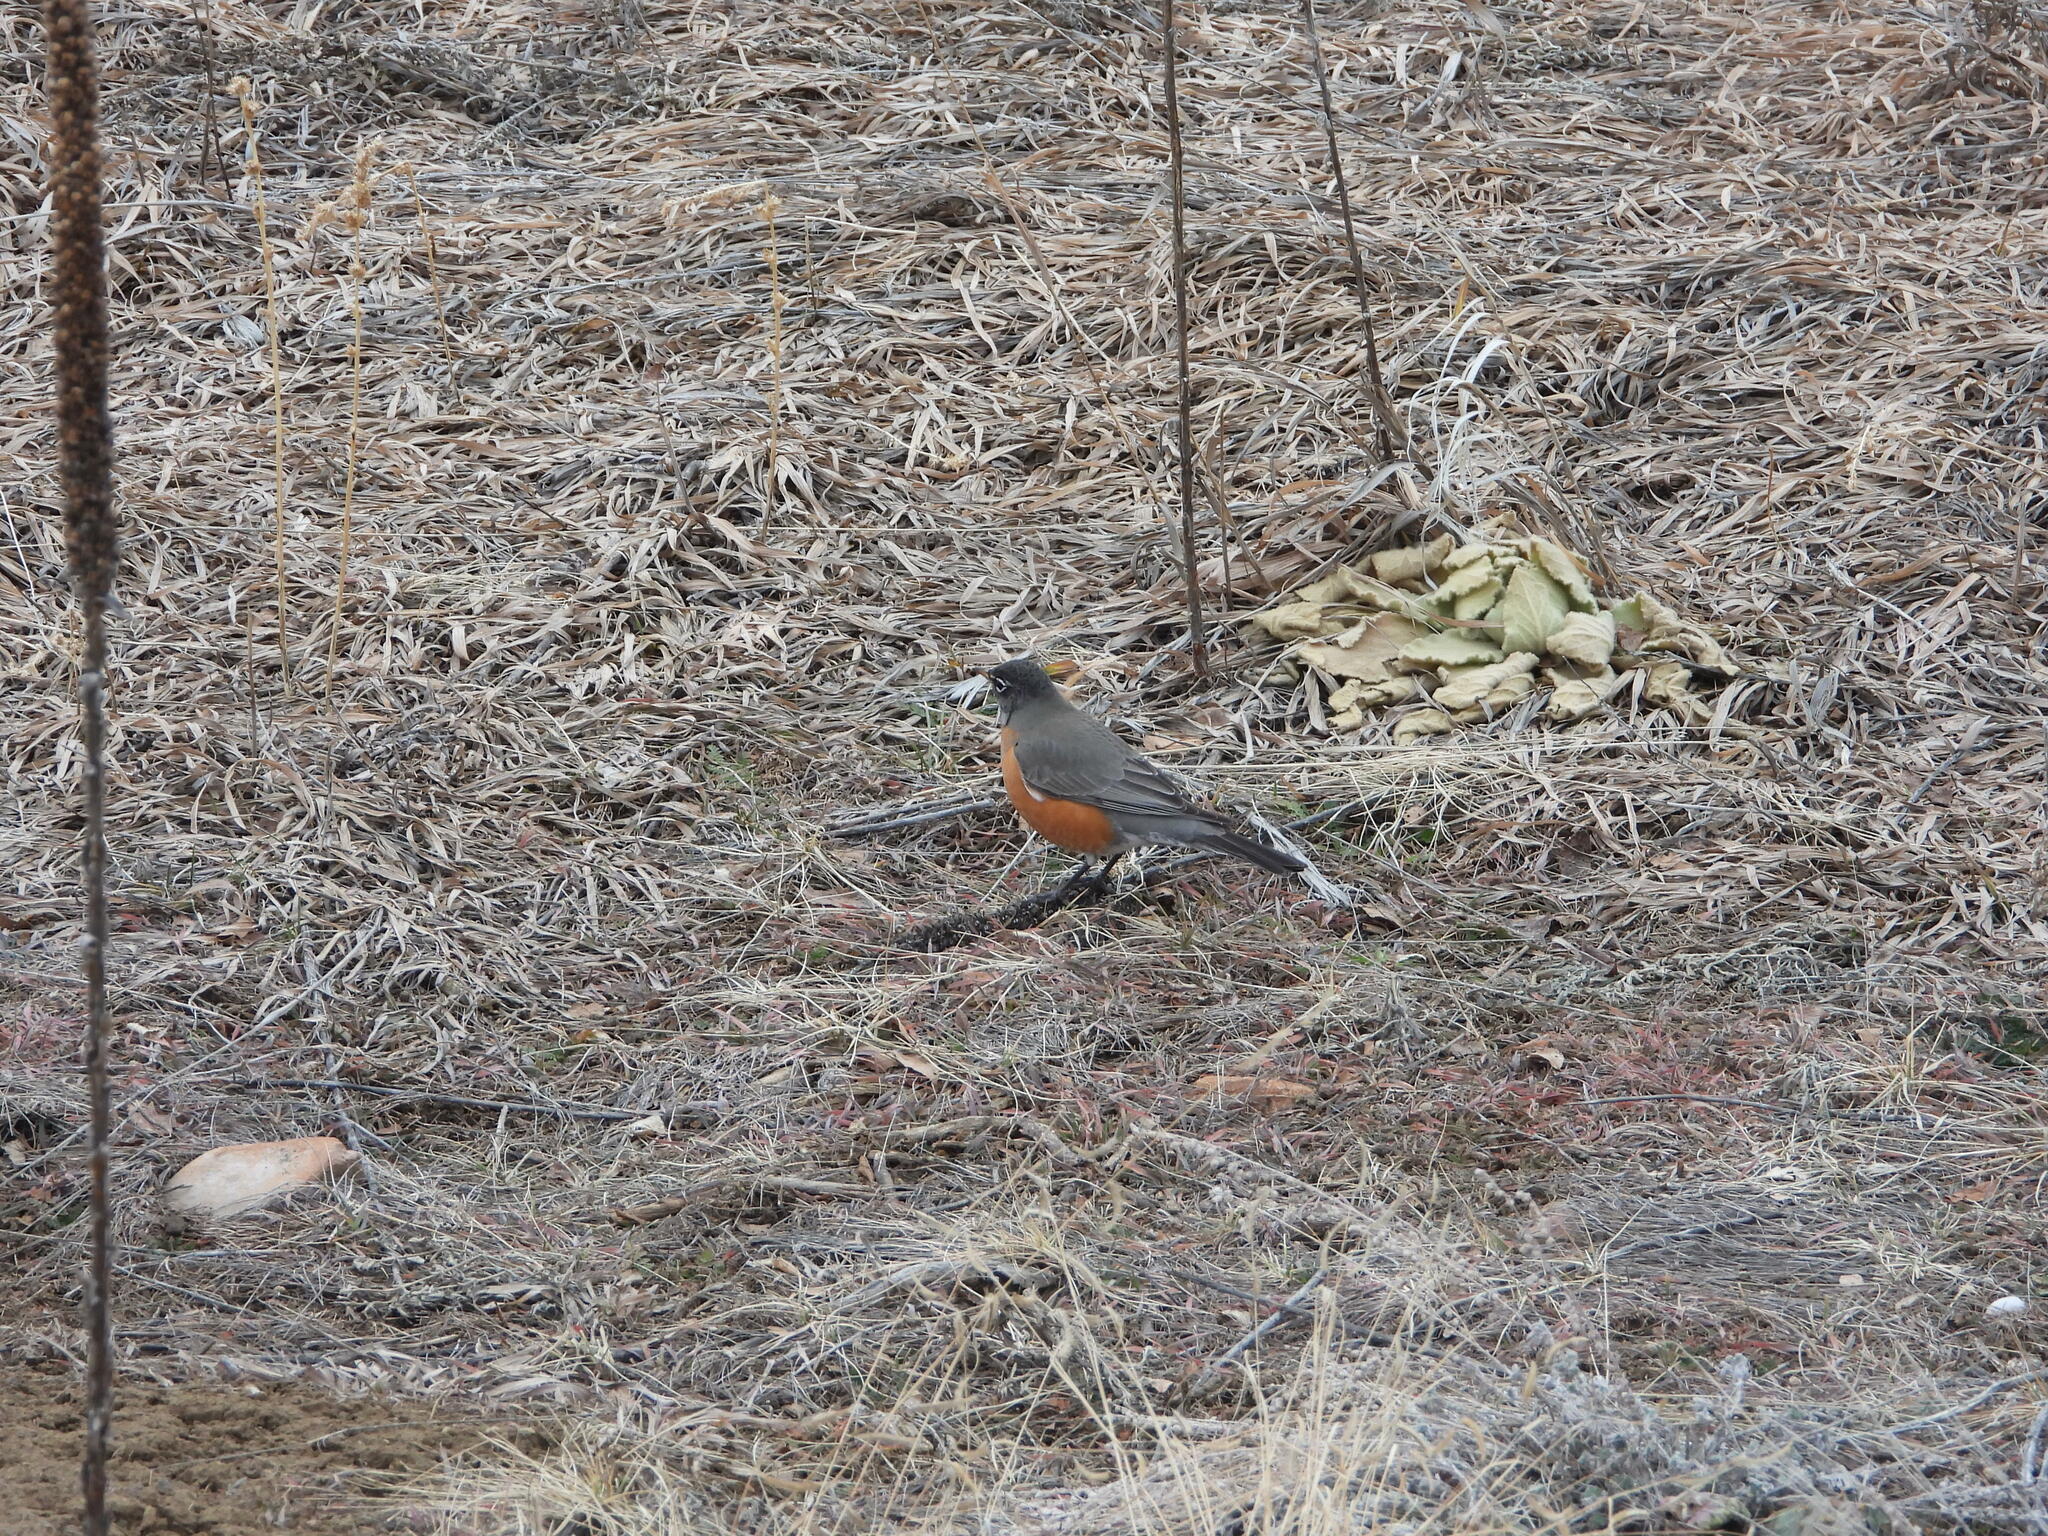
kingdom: Animalia
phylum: Chordata
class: Aves
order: Passeriformes
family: Turdidae
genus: Turdus
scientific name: Turdus migratorius
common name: American robin
